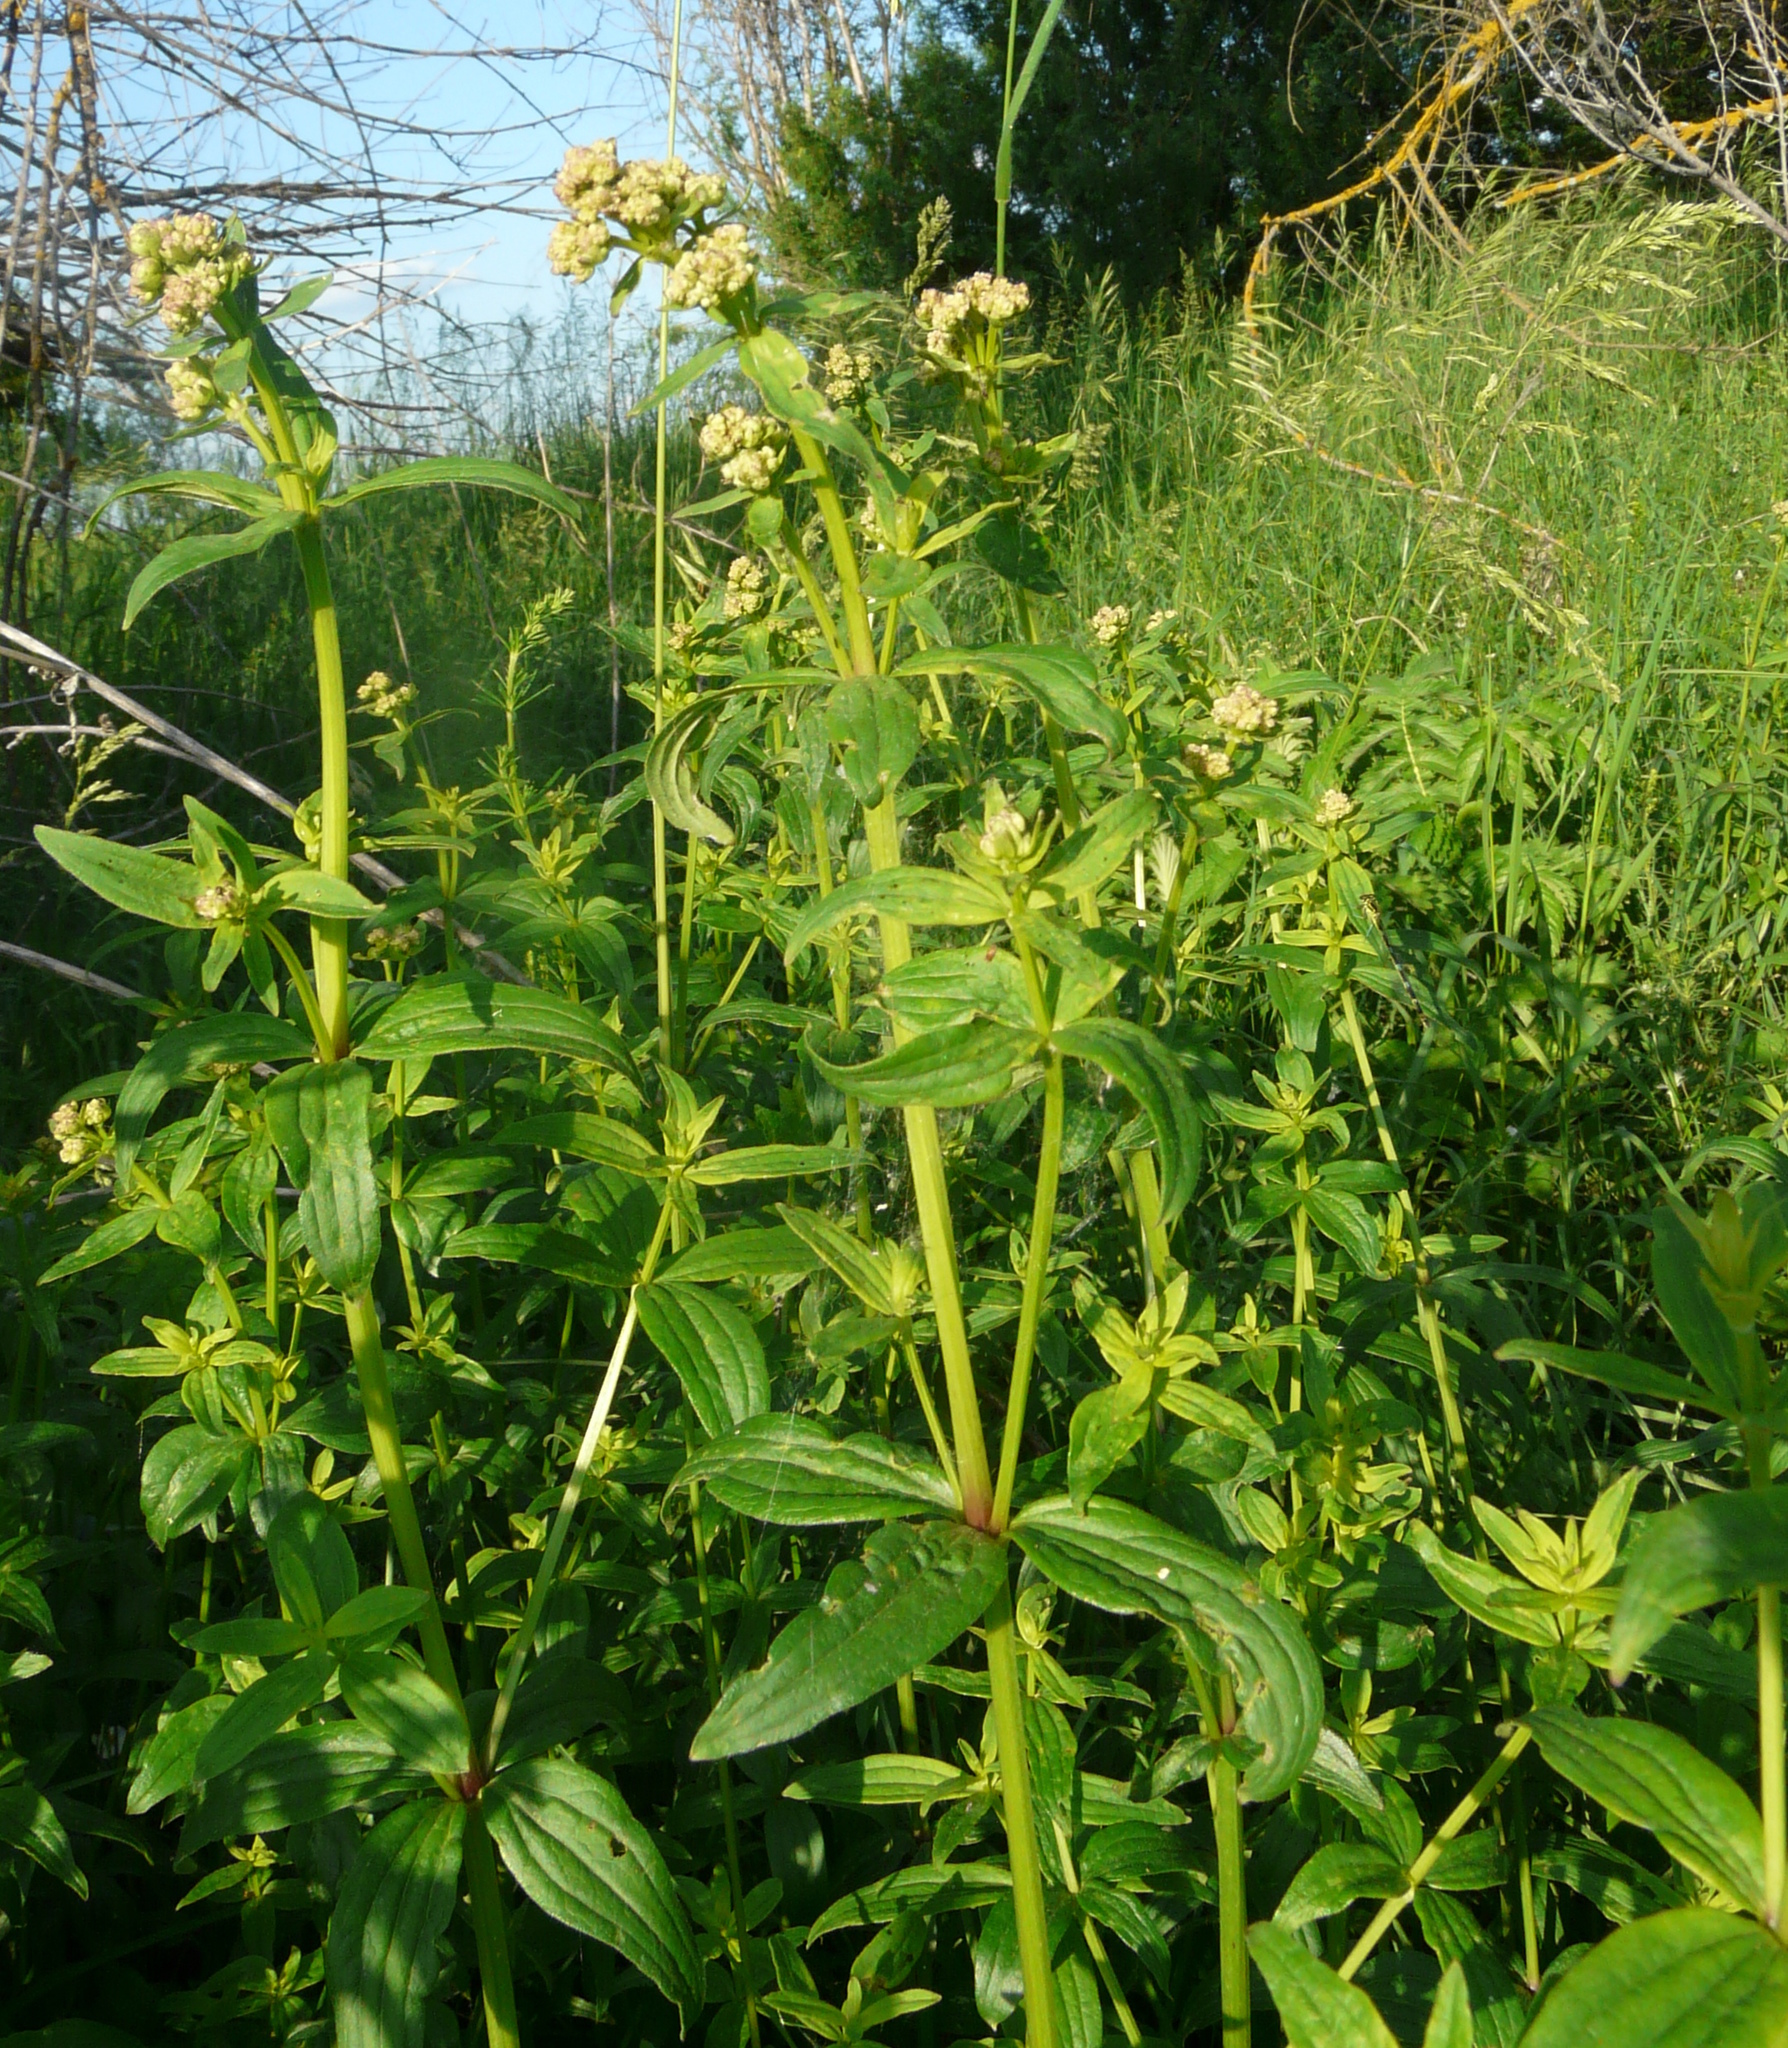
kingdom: Plantae
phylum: Tracheophyta
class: Magnoliopsida
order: Gentianales
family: Rubiaceae
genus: Galium
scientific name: Galium rubioides
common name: European bedstraw
